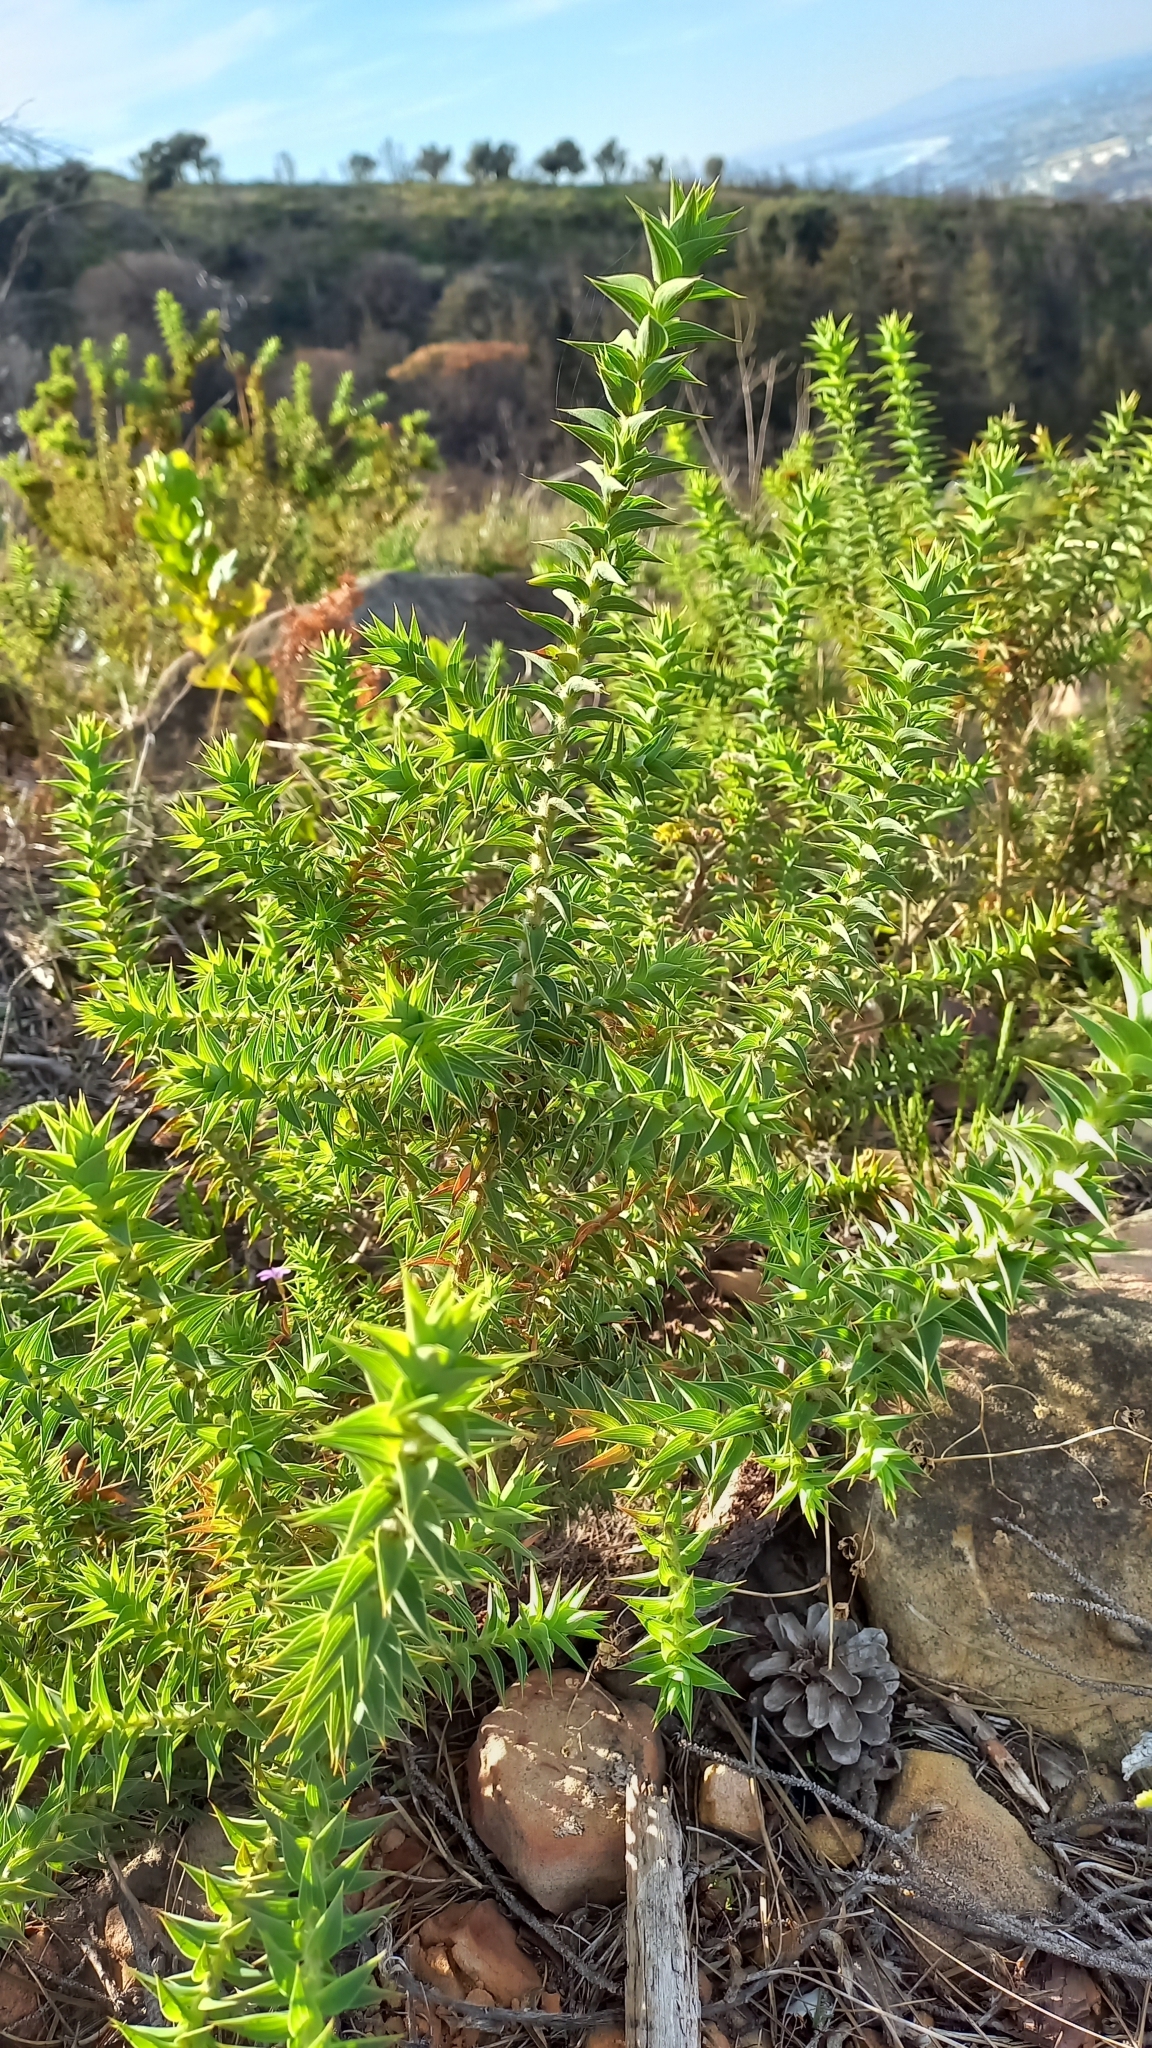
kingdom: Plantae
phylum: Tracheophyta
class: Magnoliopsida
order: Fabales
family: Fabaceae
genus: Aspalathus
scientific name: Aspalathus cordata
